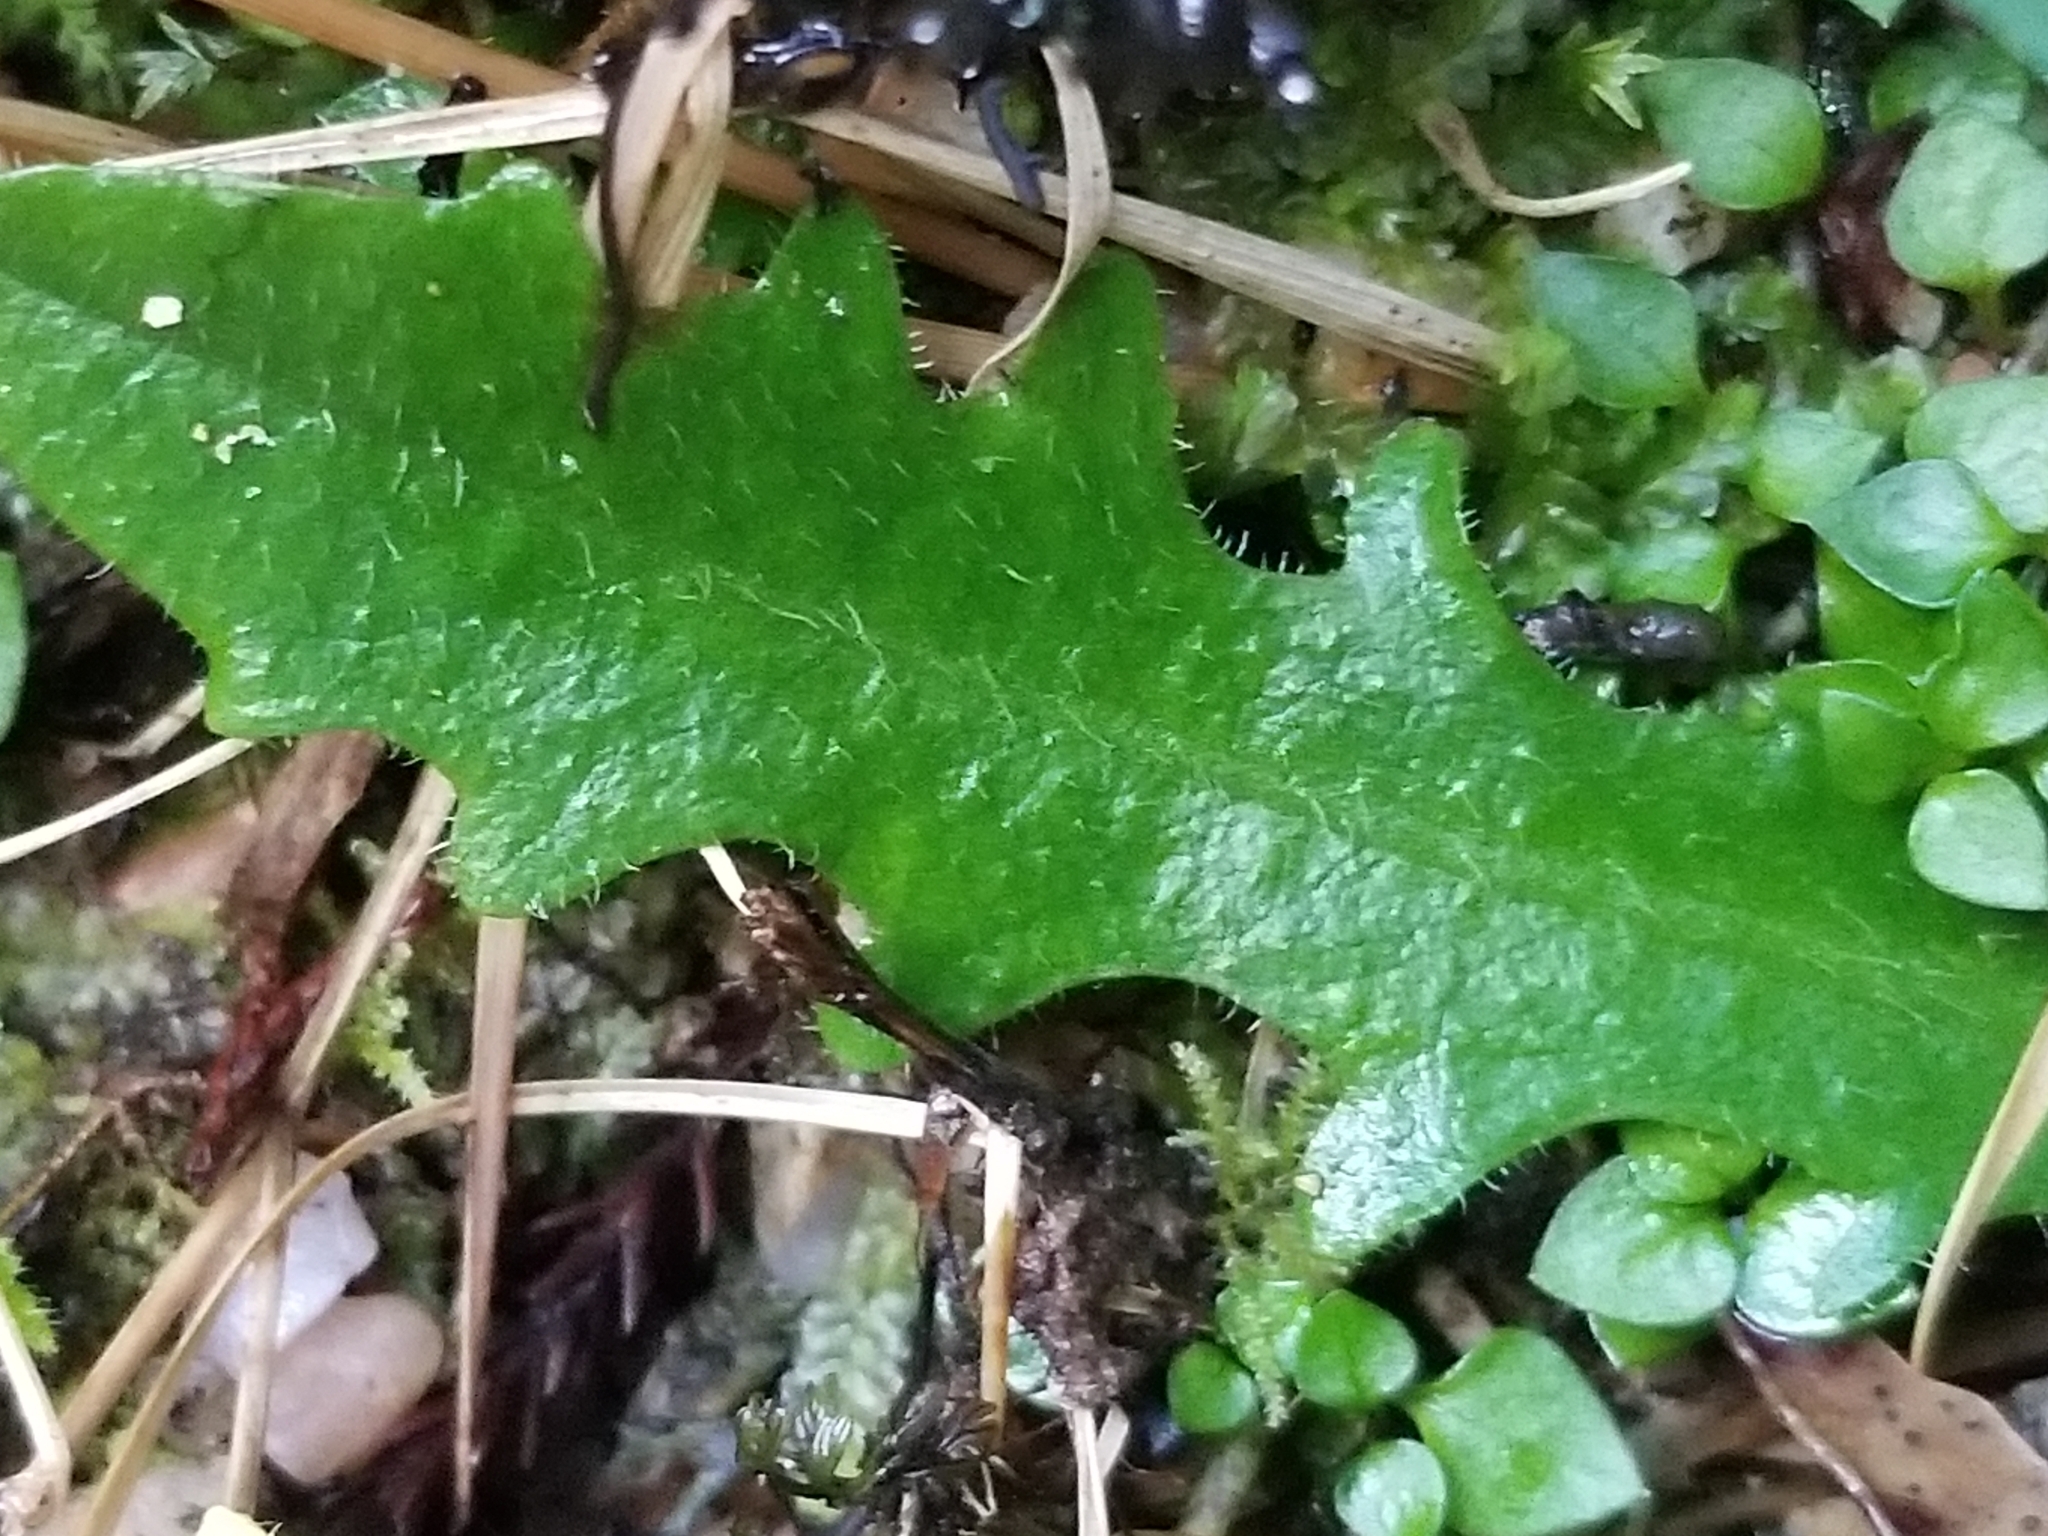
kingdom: Plantae
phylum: Tracheophyta
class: Magnoliopsida
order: Asterales
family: Asteraceae
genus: Hypochaeris
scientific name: Hypochaeris radicata
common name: Flatweed
